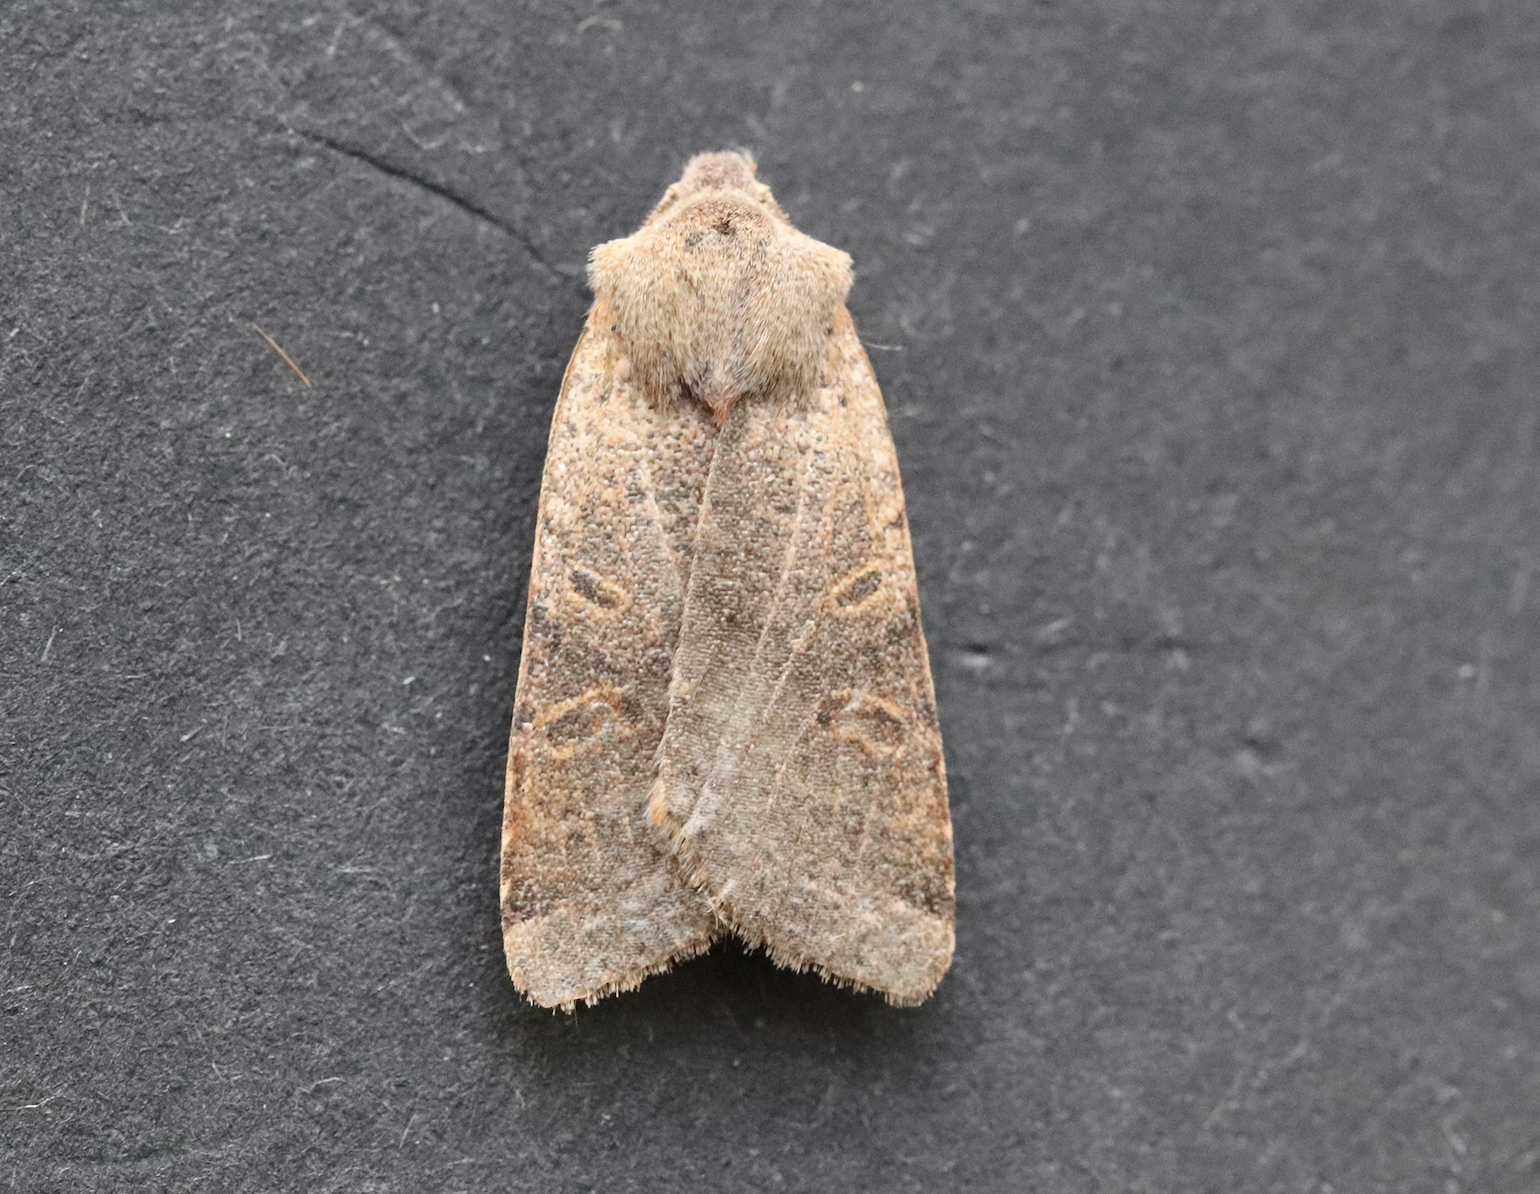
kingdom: Animalia
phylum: Arthropoda
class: Insecta
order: Lepidoptera
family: Noctuidae
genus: Agrochola
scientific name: Agrochola lychnidis
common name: Beaded chestnut
